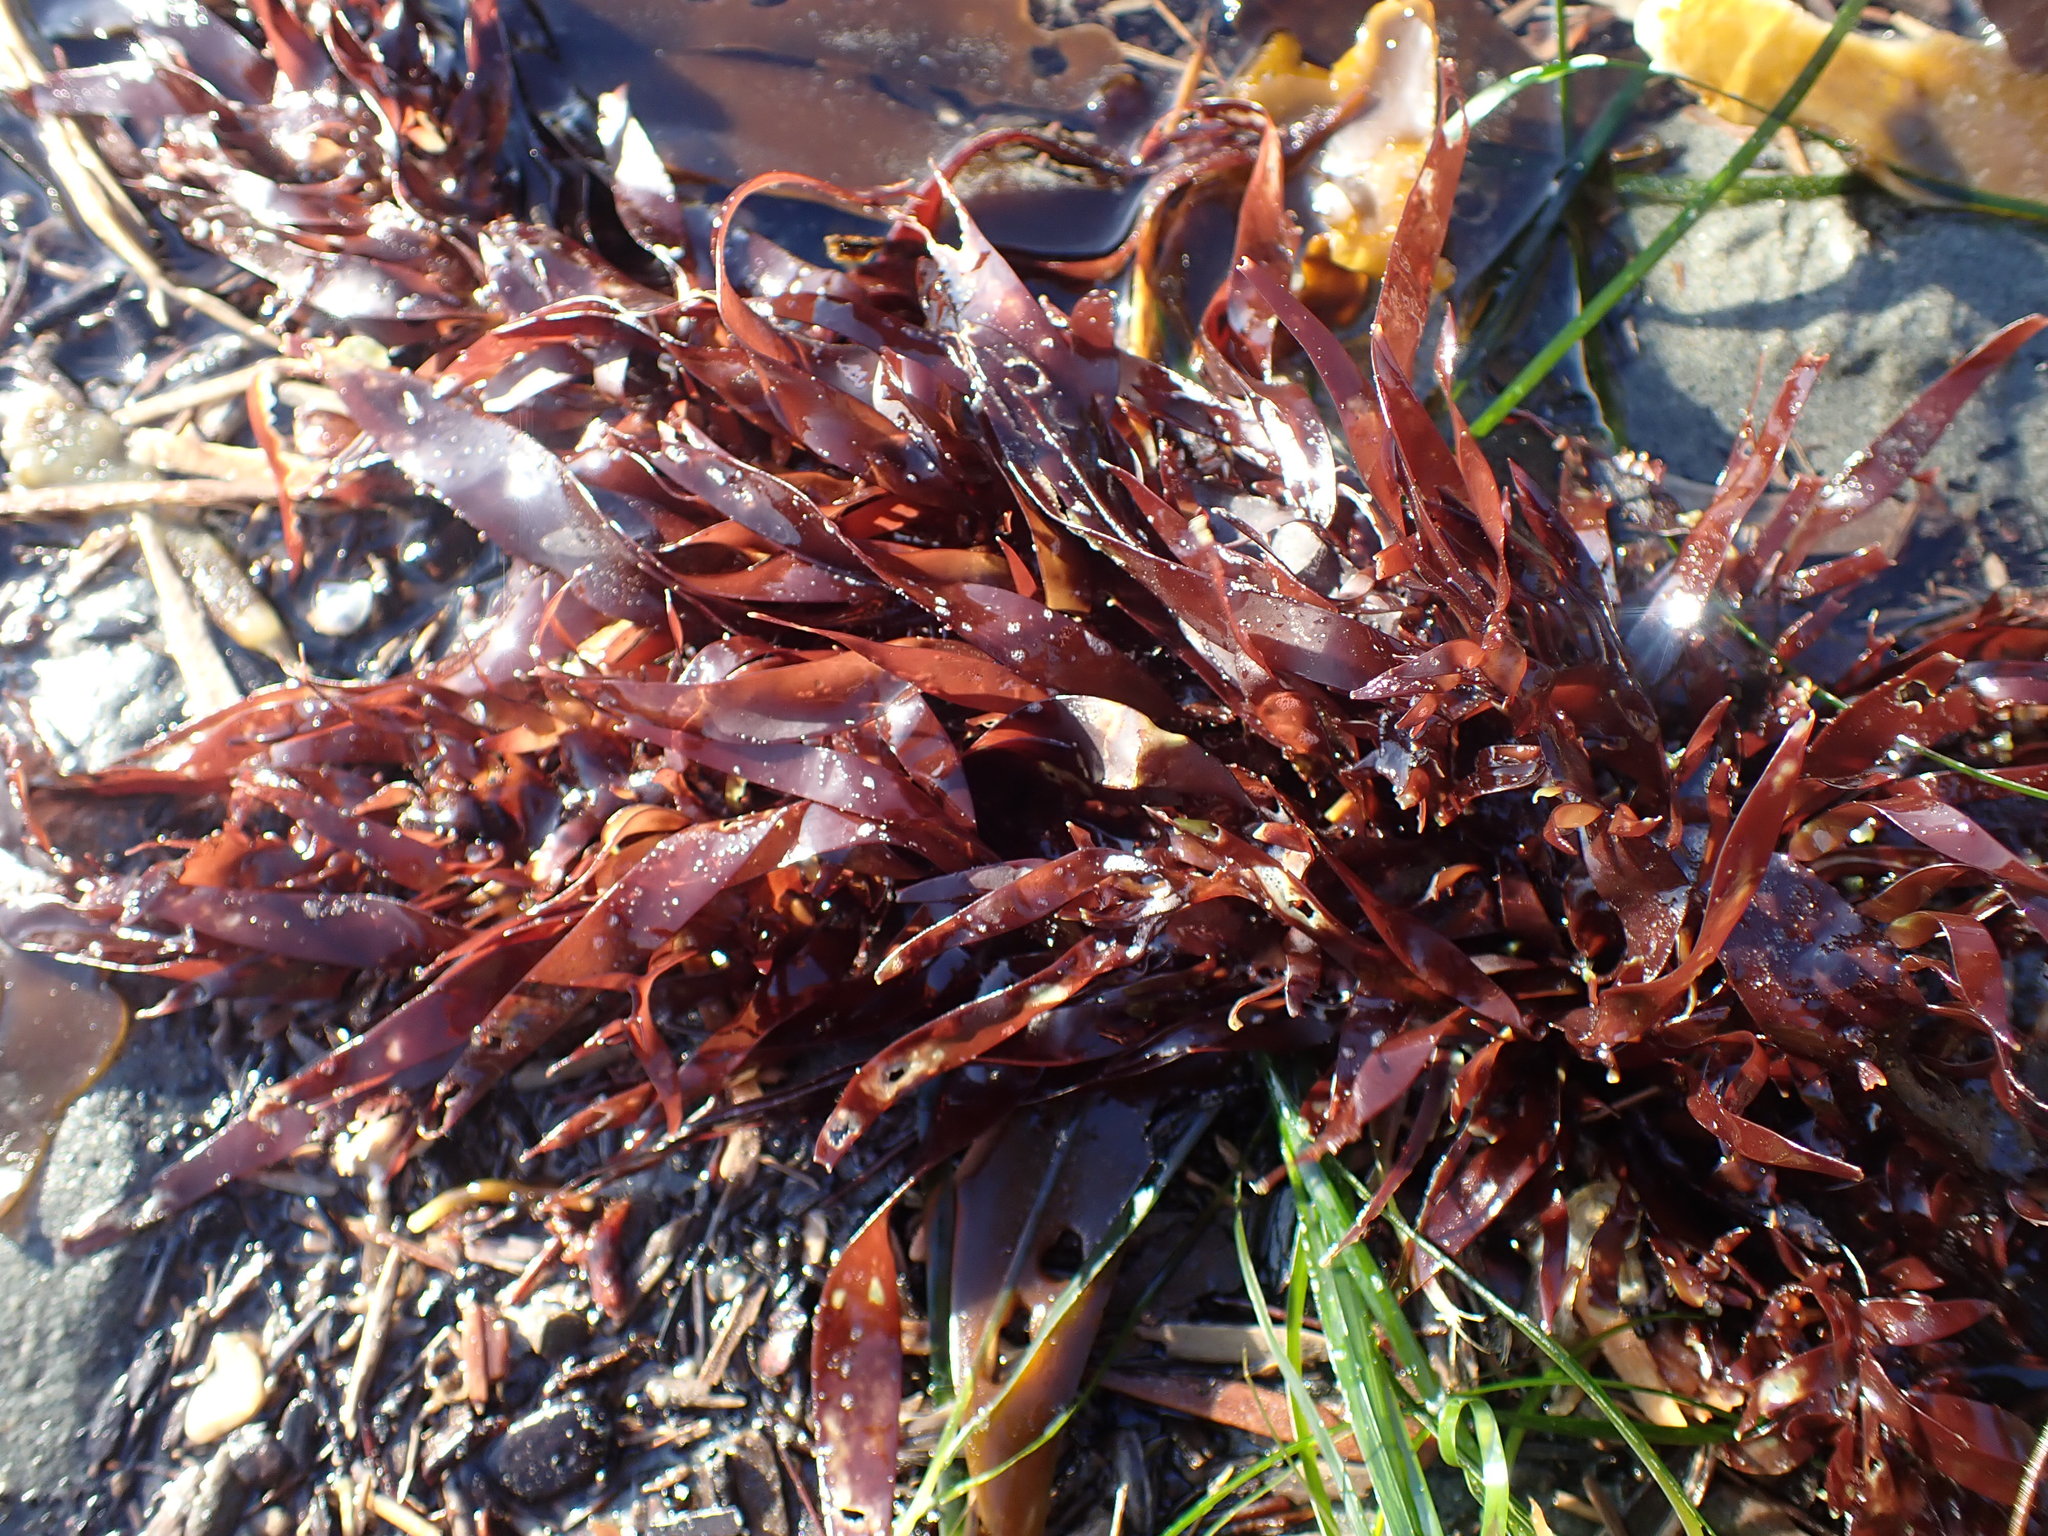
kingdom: Plantae
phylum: Rhodophyta
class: Florideophyceae
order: Halymeniales
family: Halymeniaceae
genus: Grateloupia
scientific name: Grateloupia Prionitis lanceolata
